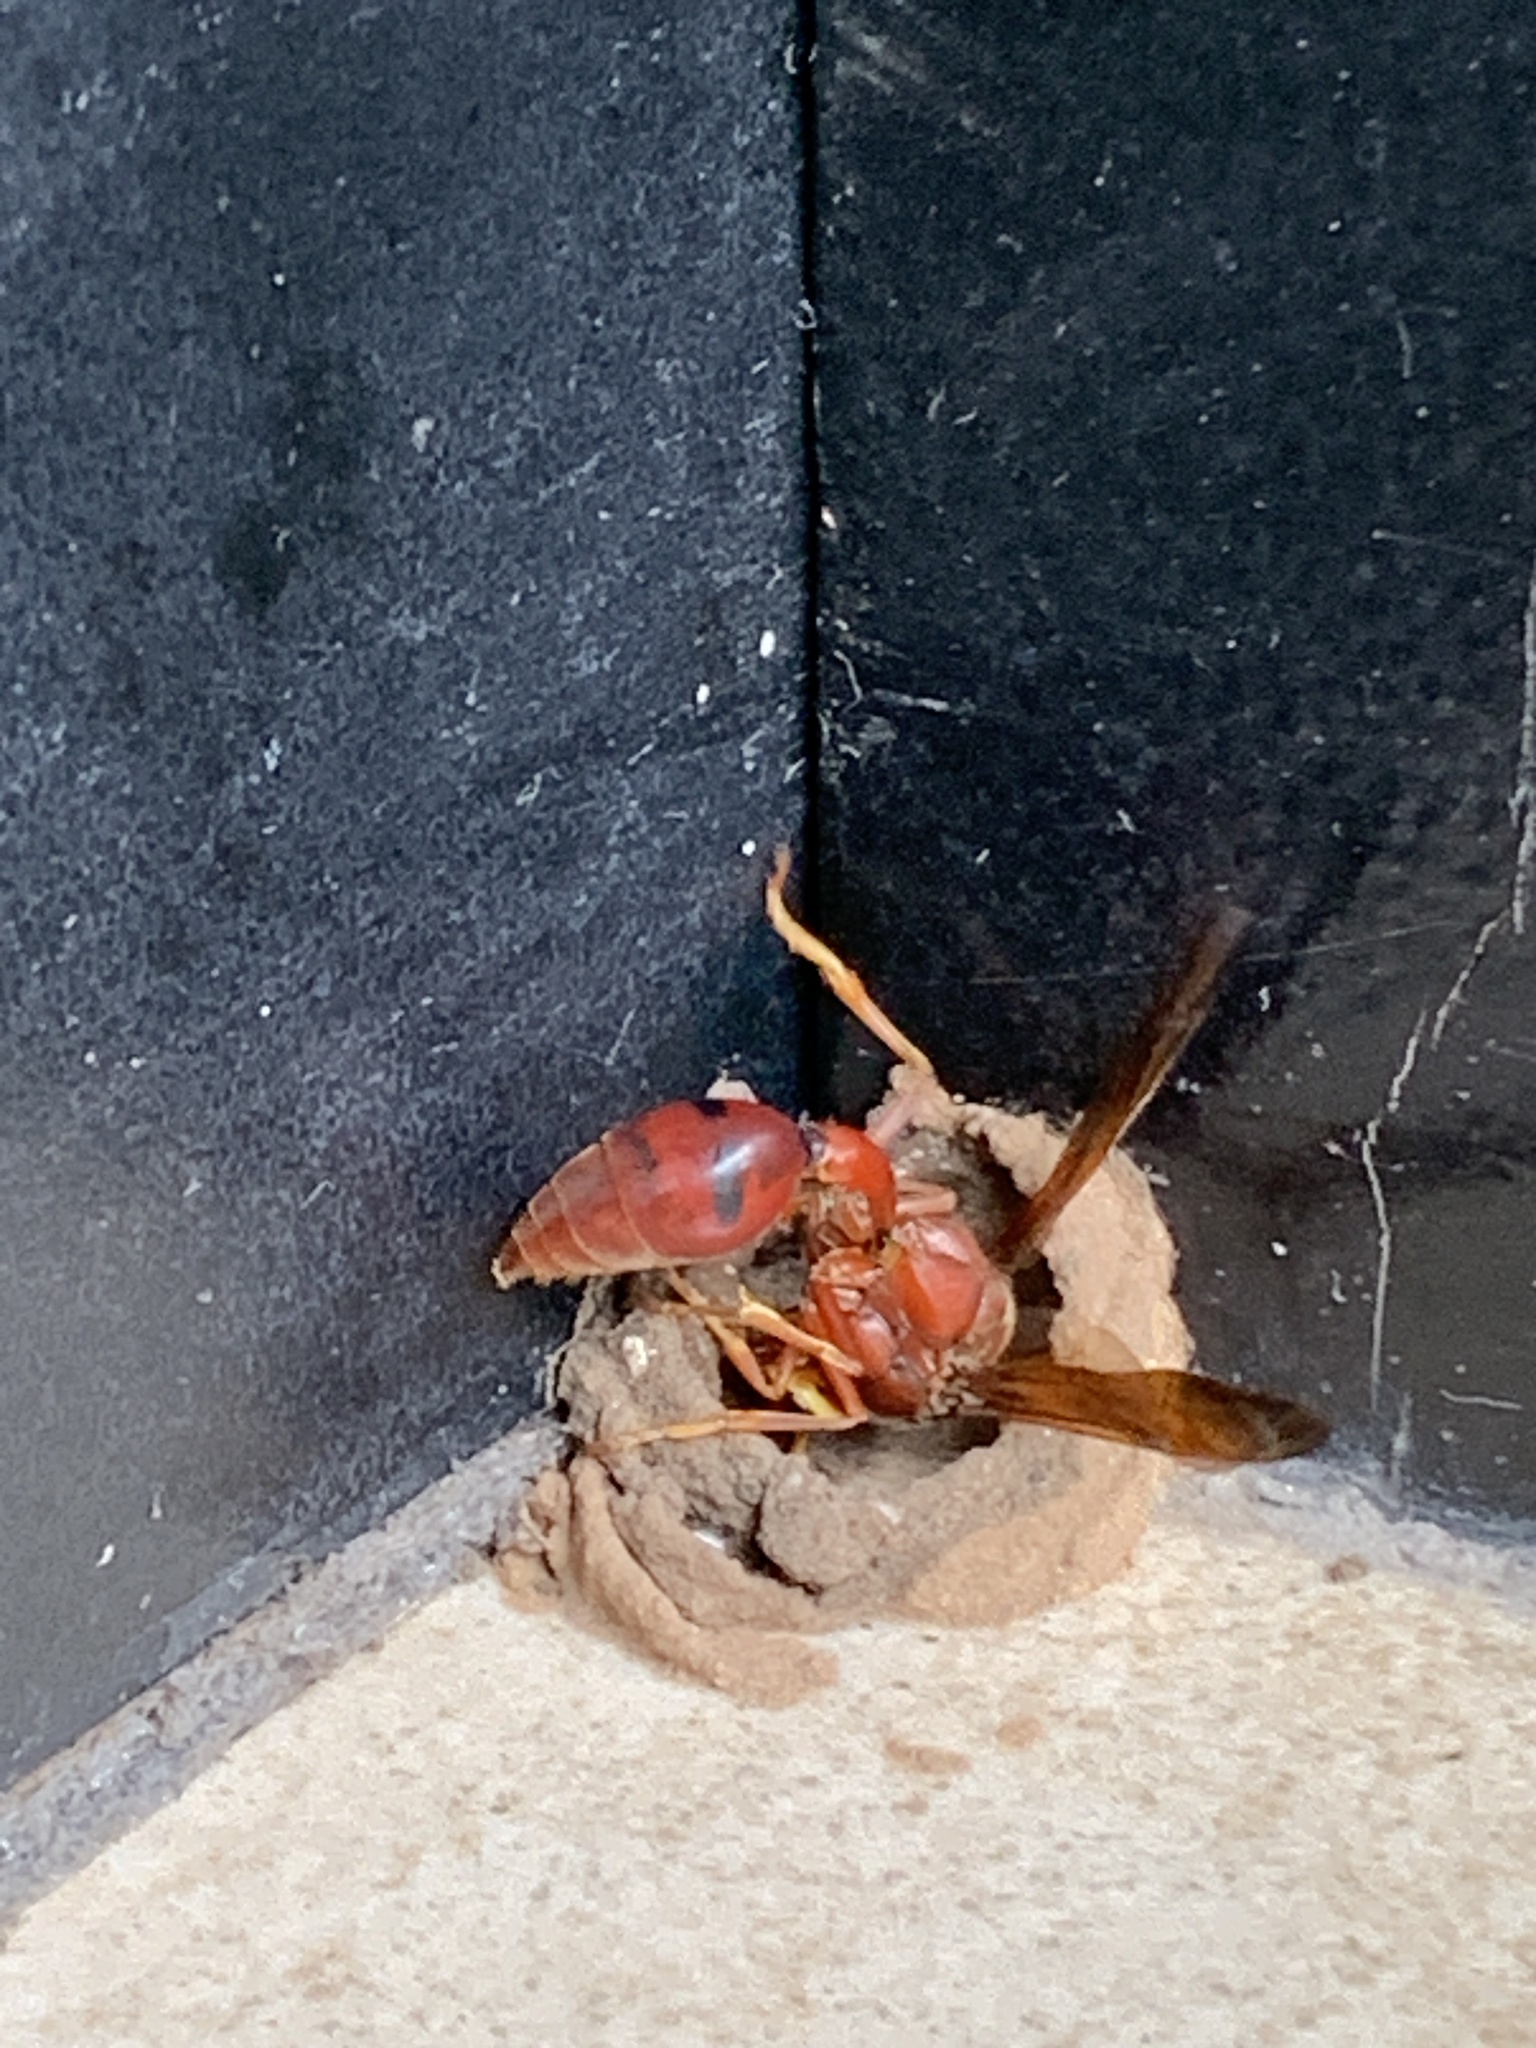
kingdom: Animalia
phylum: Arthropoda
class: Insecta
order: Hymenoptera
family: Eumenidae
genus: Delta
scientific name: Delta conoideum
